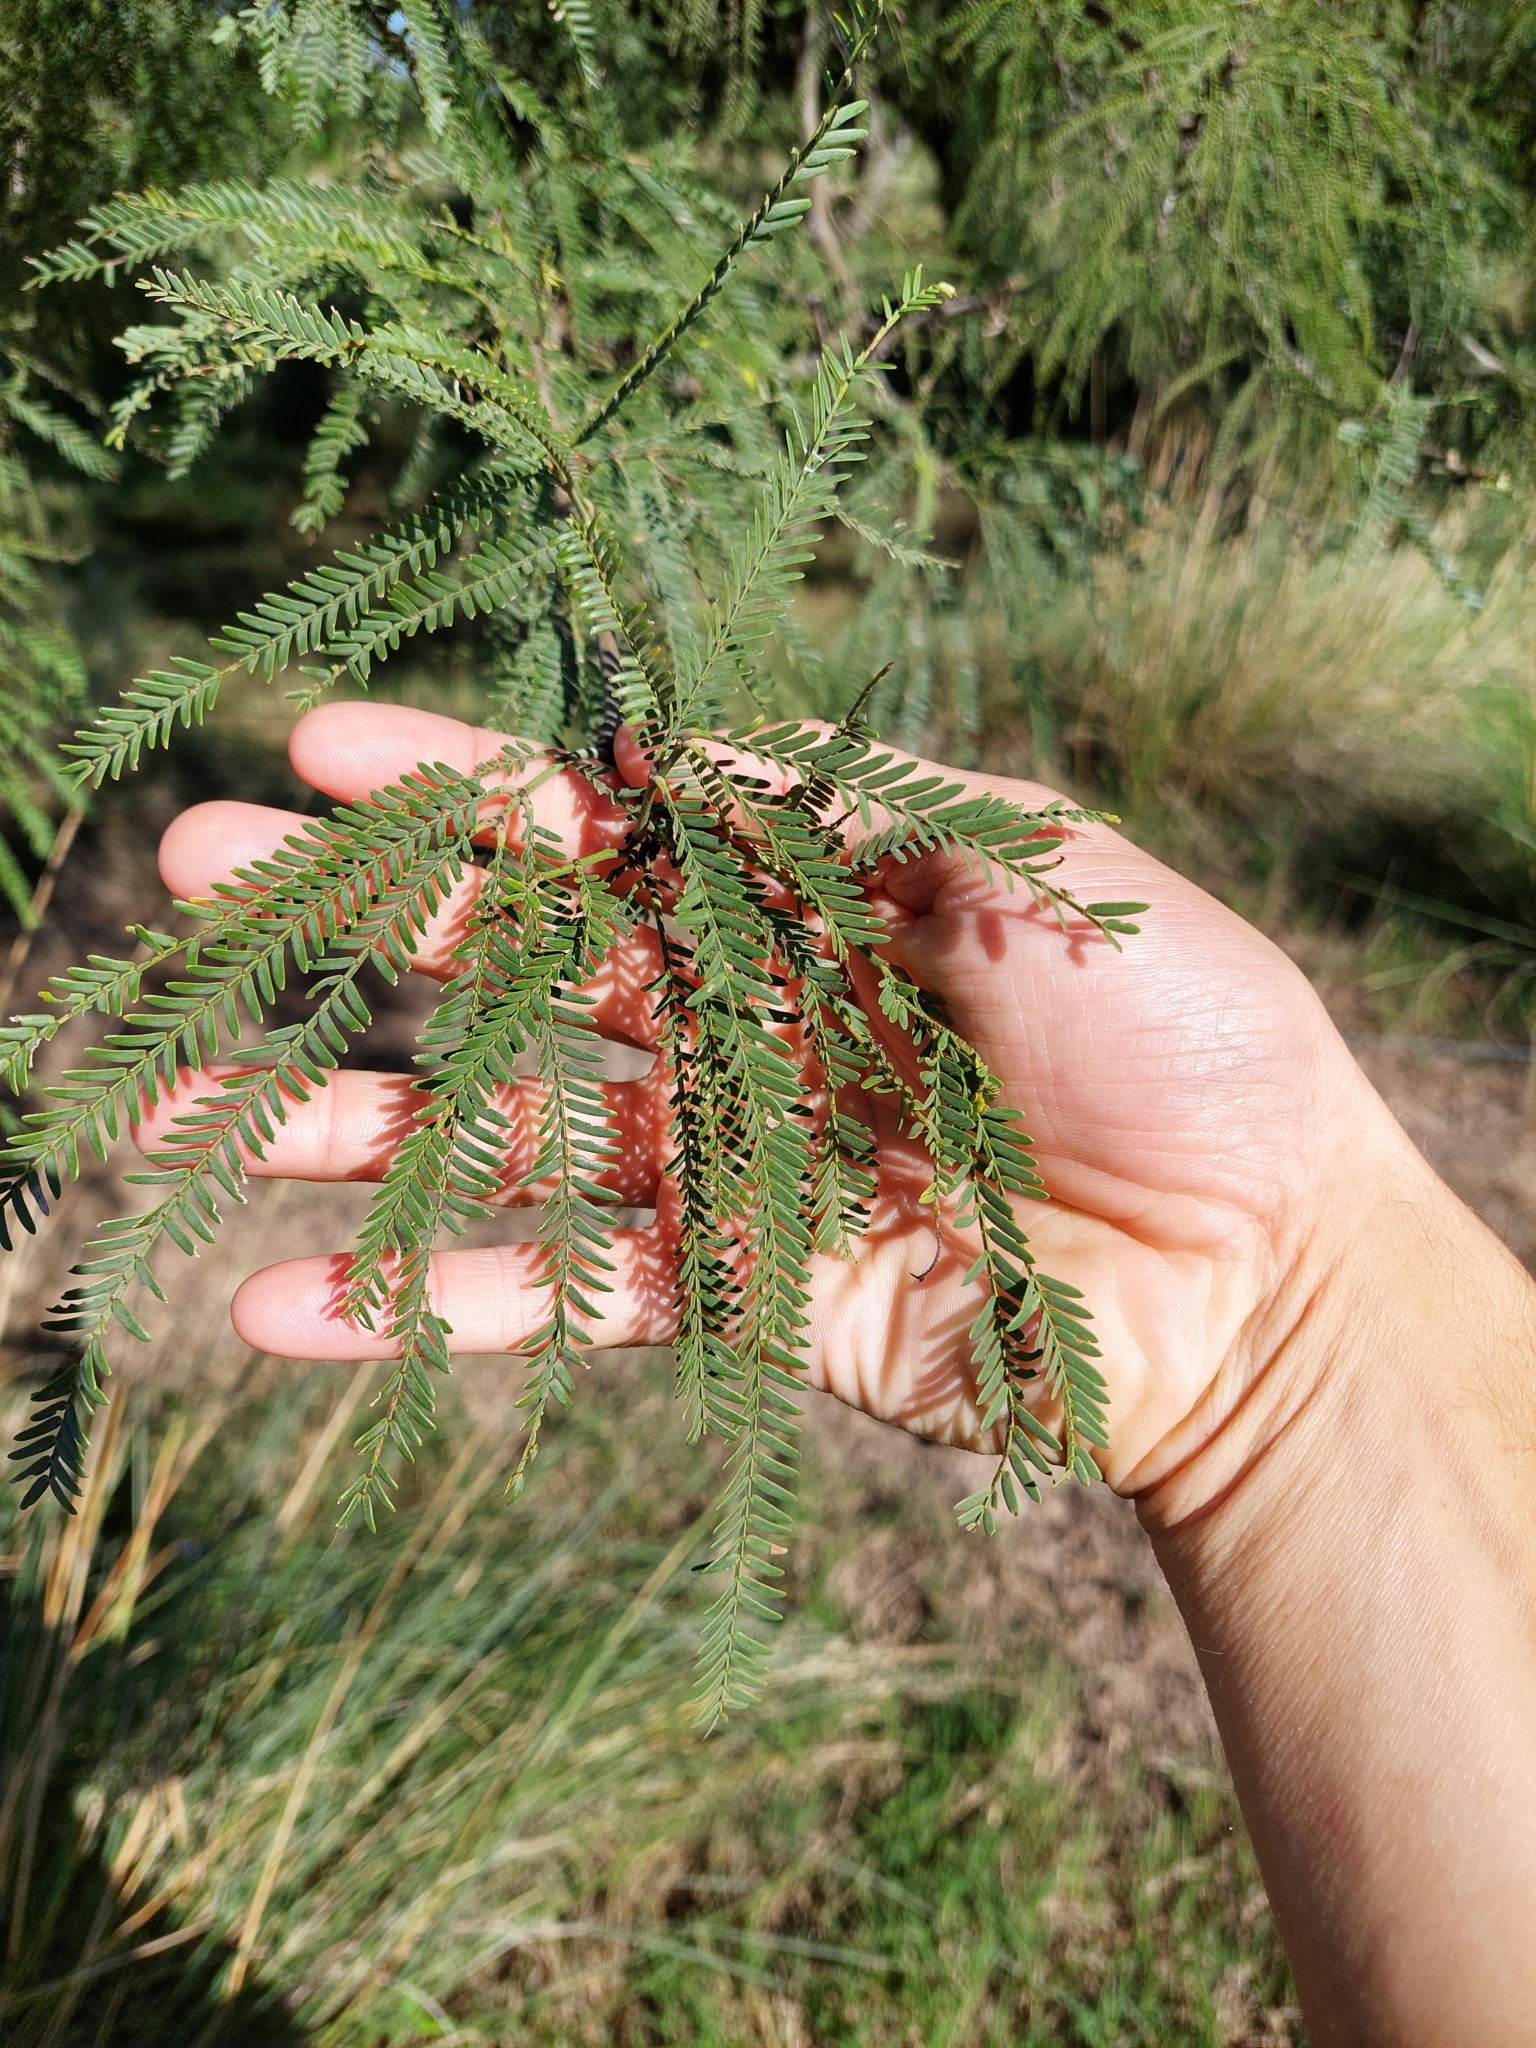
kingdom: Plantae
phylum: Tracheophyta
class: Magnoliopsida
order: Fabales
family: Fabaceae
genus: Prosopis
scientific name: Prosopis alba
